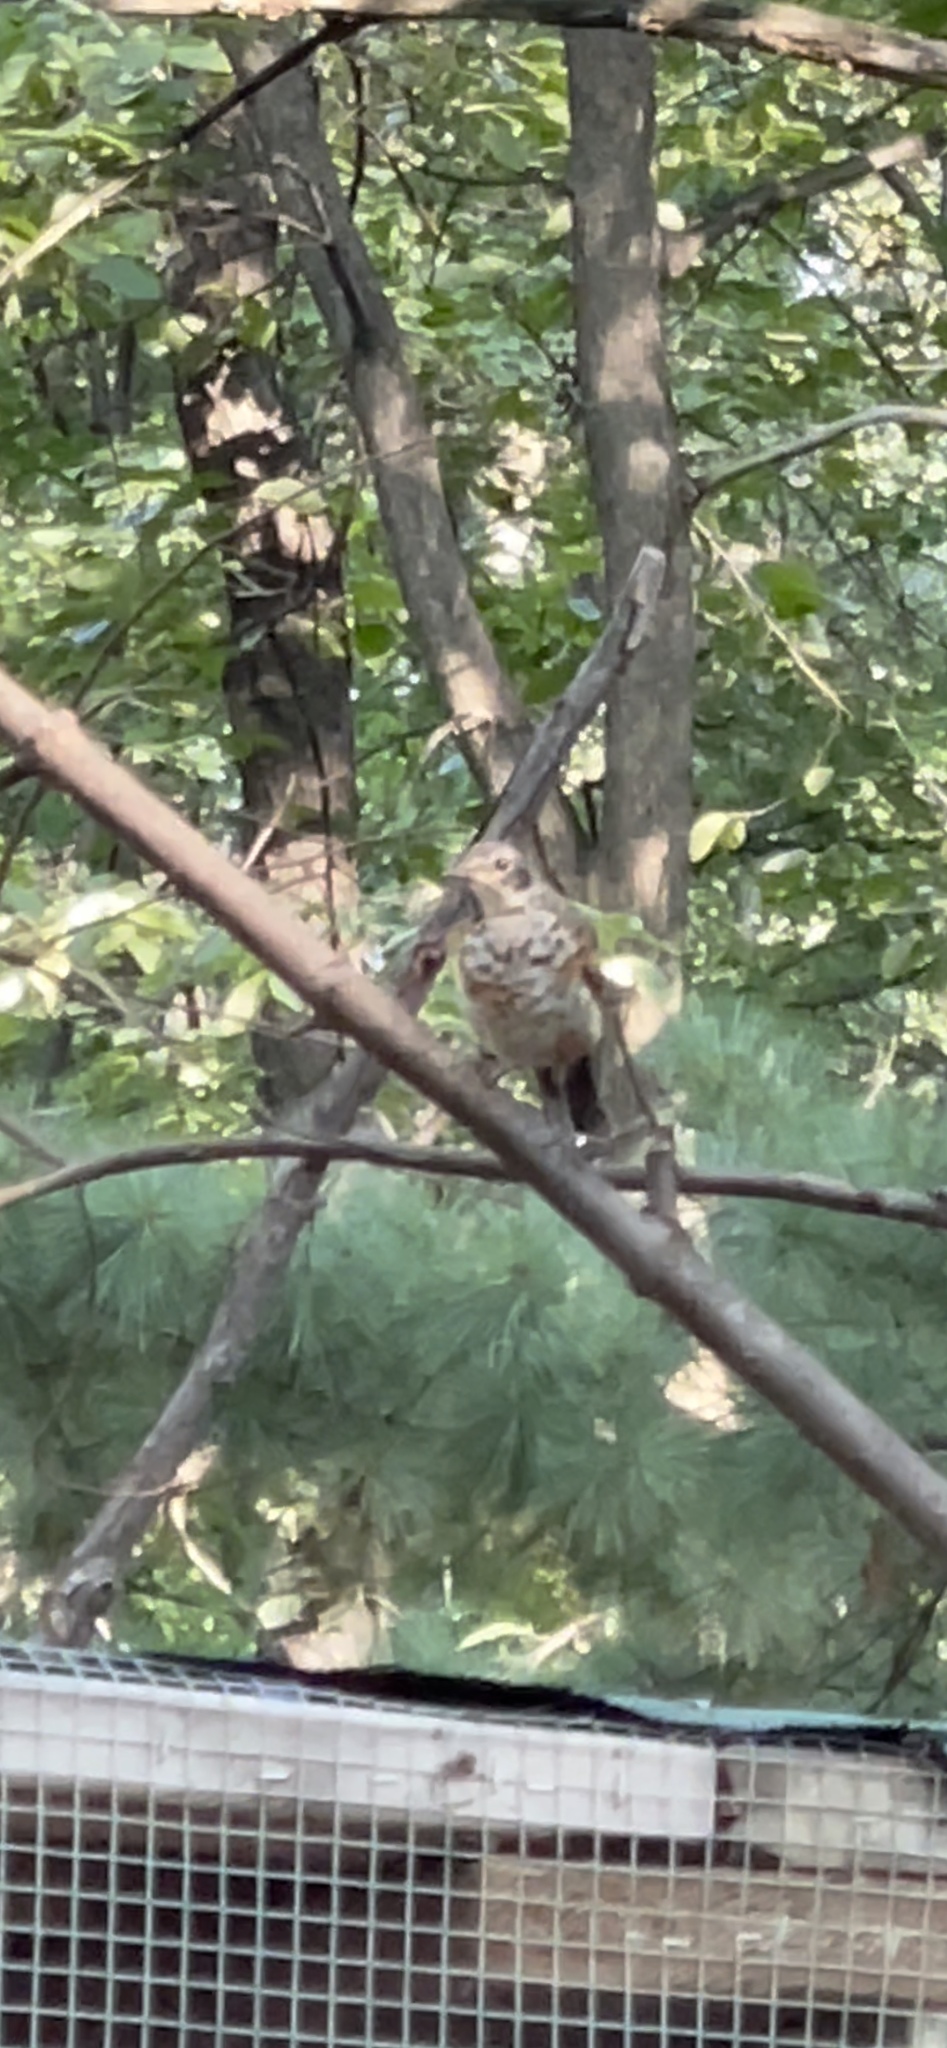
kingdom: Animalia
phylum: Chordata
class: Aves
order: Passeriformes
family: Turdidae
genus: Turdus
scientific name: Turdus migratorius
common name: American robin
